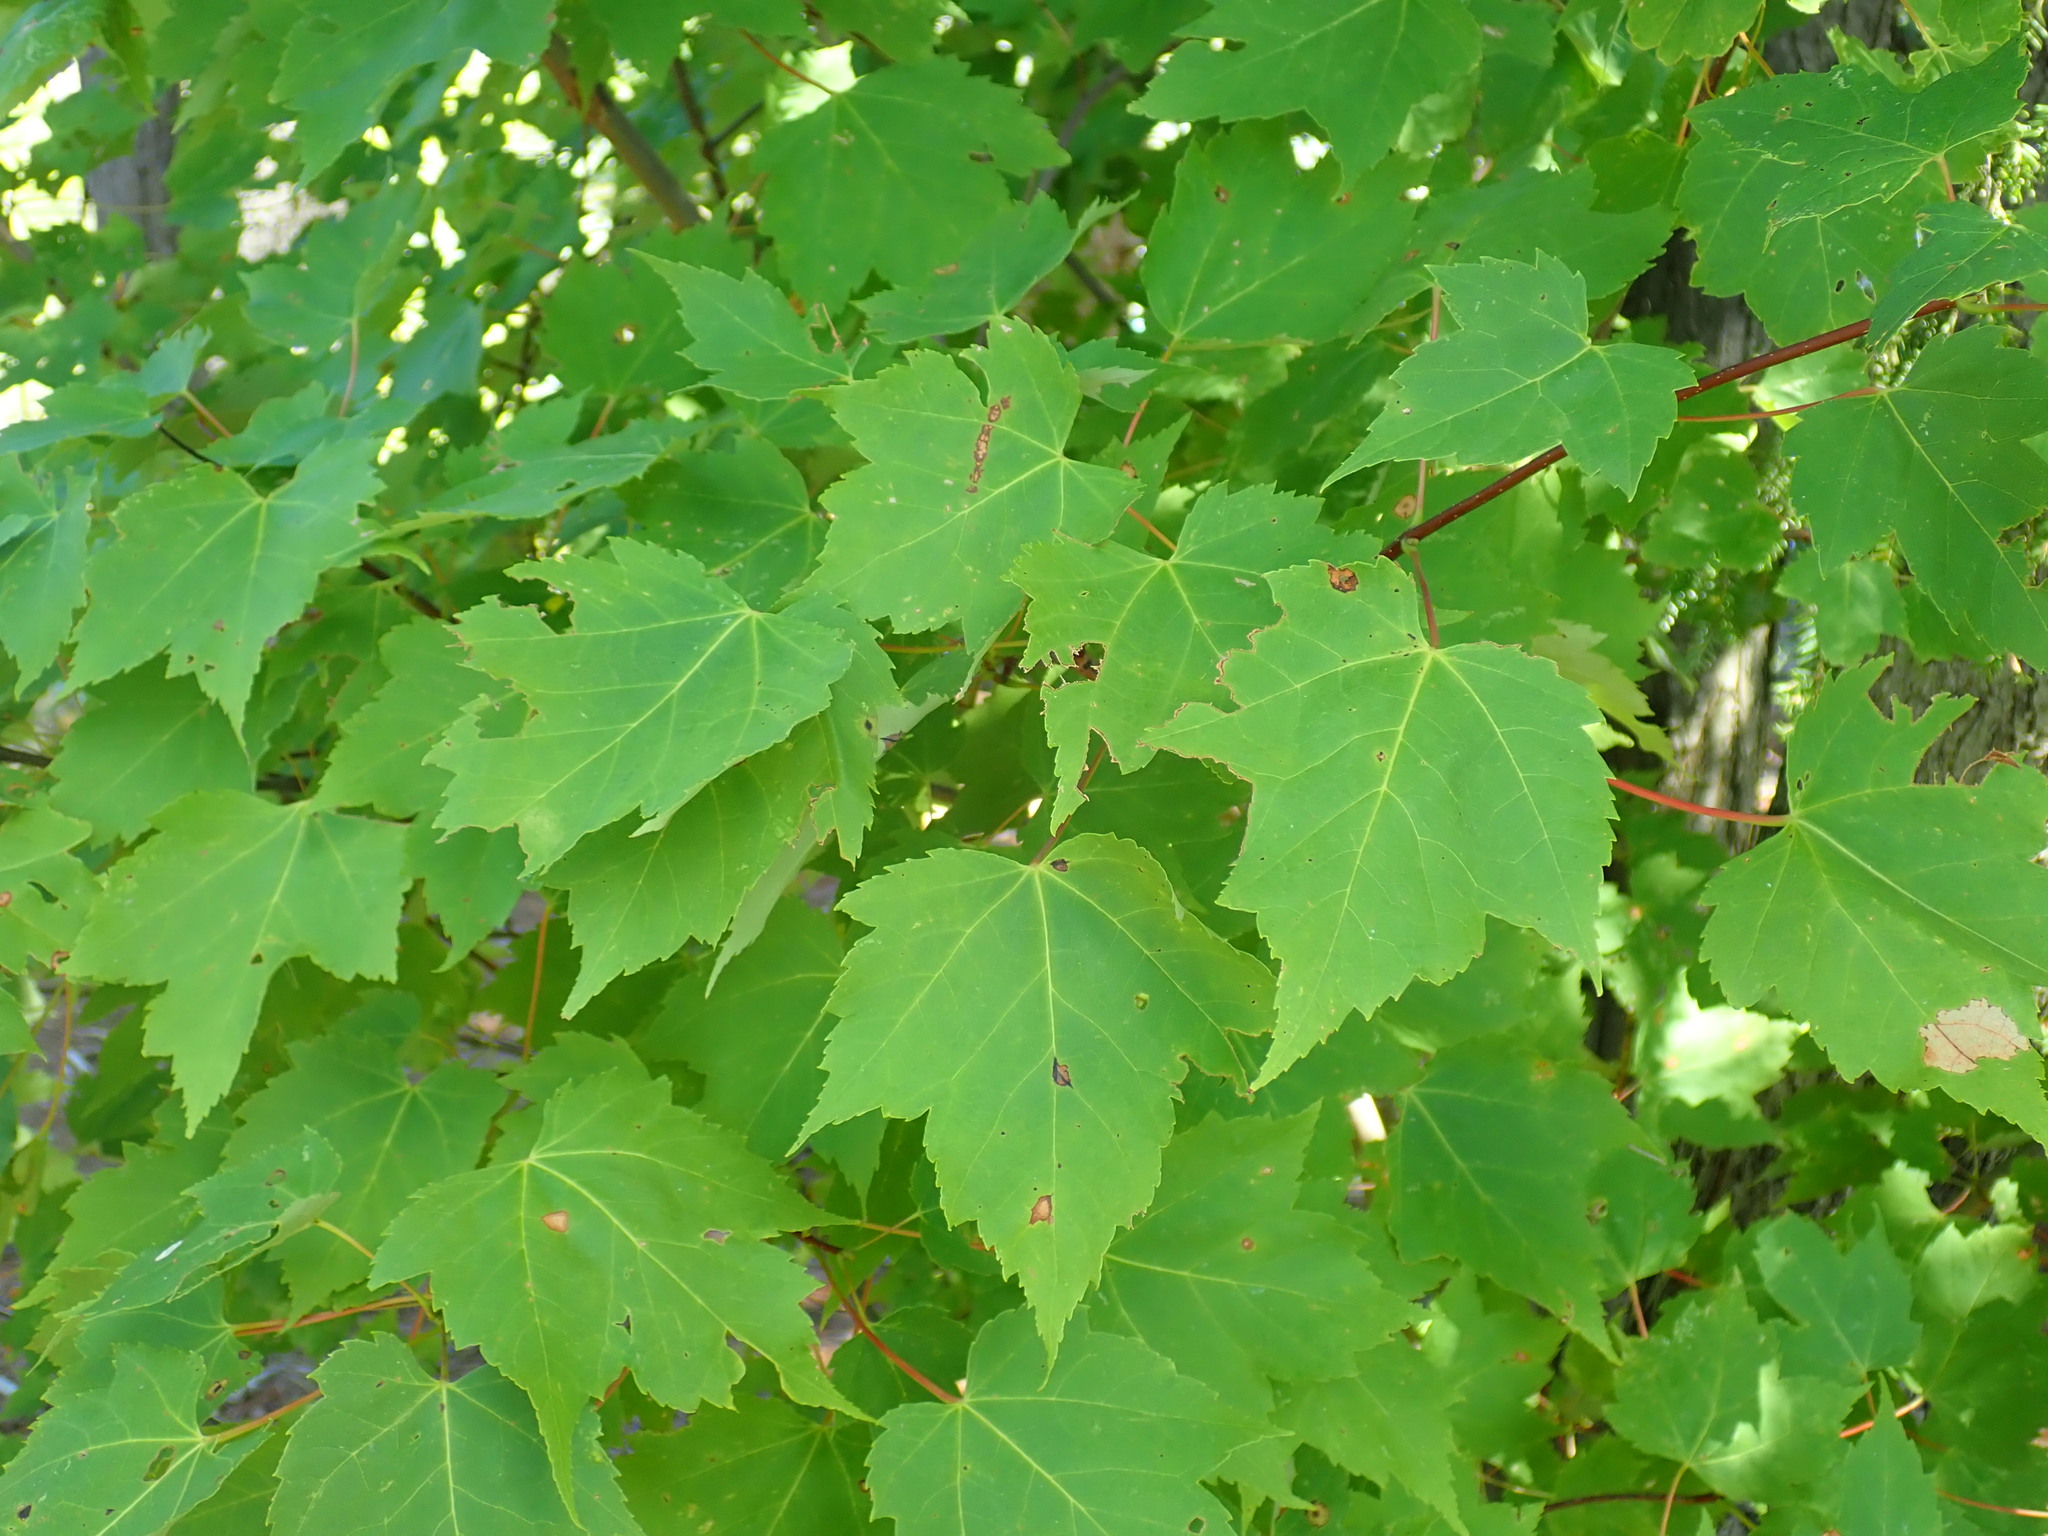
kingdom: Plantae
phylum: Tracheophyta
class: Magnoliopsida
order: Sapindales
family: Sapindaceae
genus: Acer
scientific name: Acer rubrum
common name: Red maple
